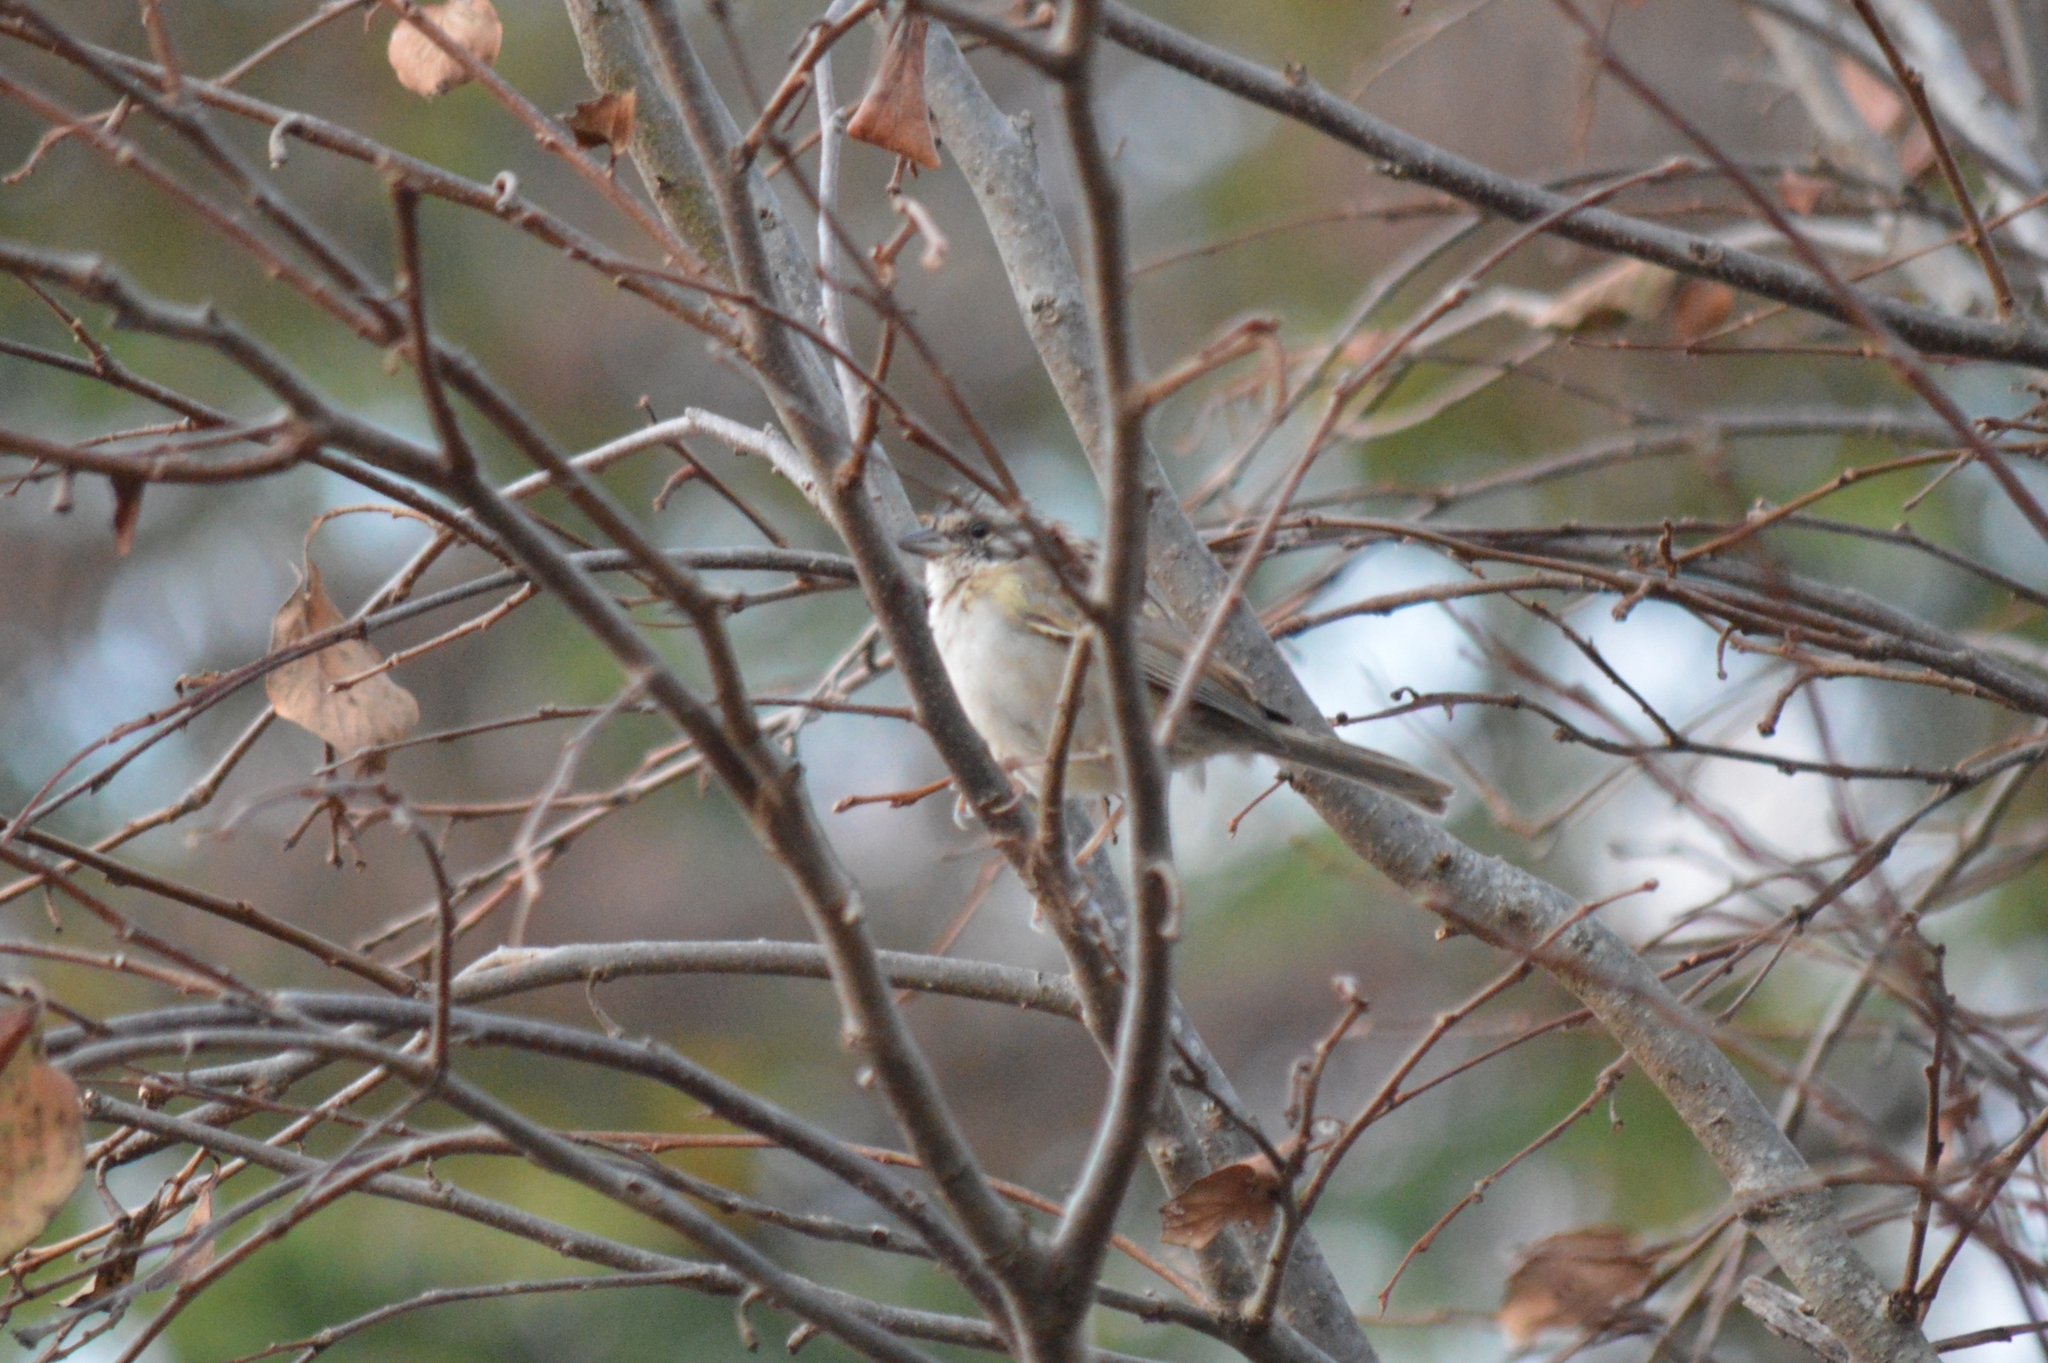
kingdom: Animalia
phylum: Chordata
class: Aves
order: Passeriformes
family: Passerellidae
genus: Zonotrichia
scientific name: Zonotrichia capensis
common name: Rufous-collared sparrow
